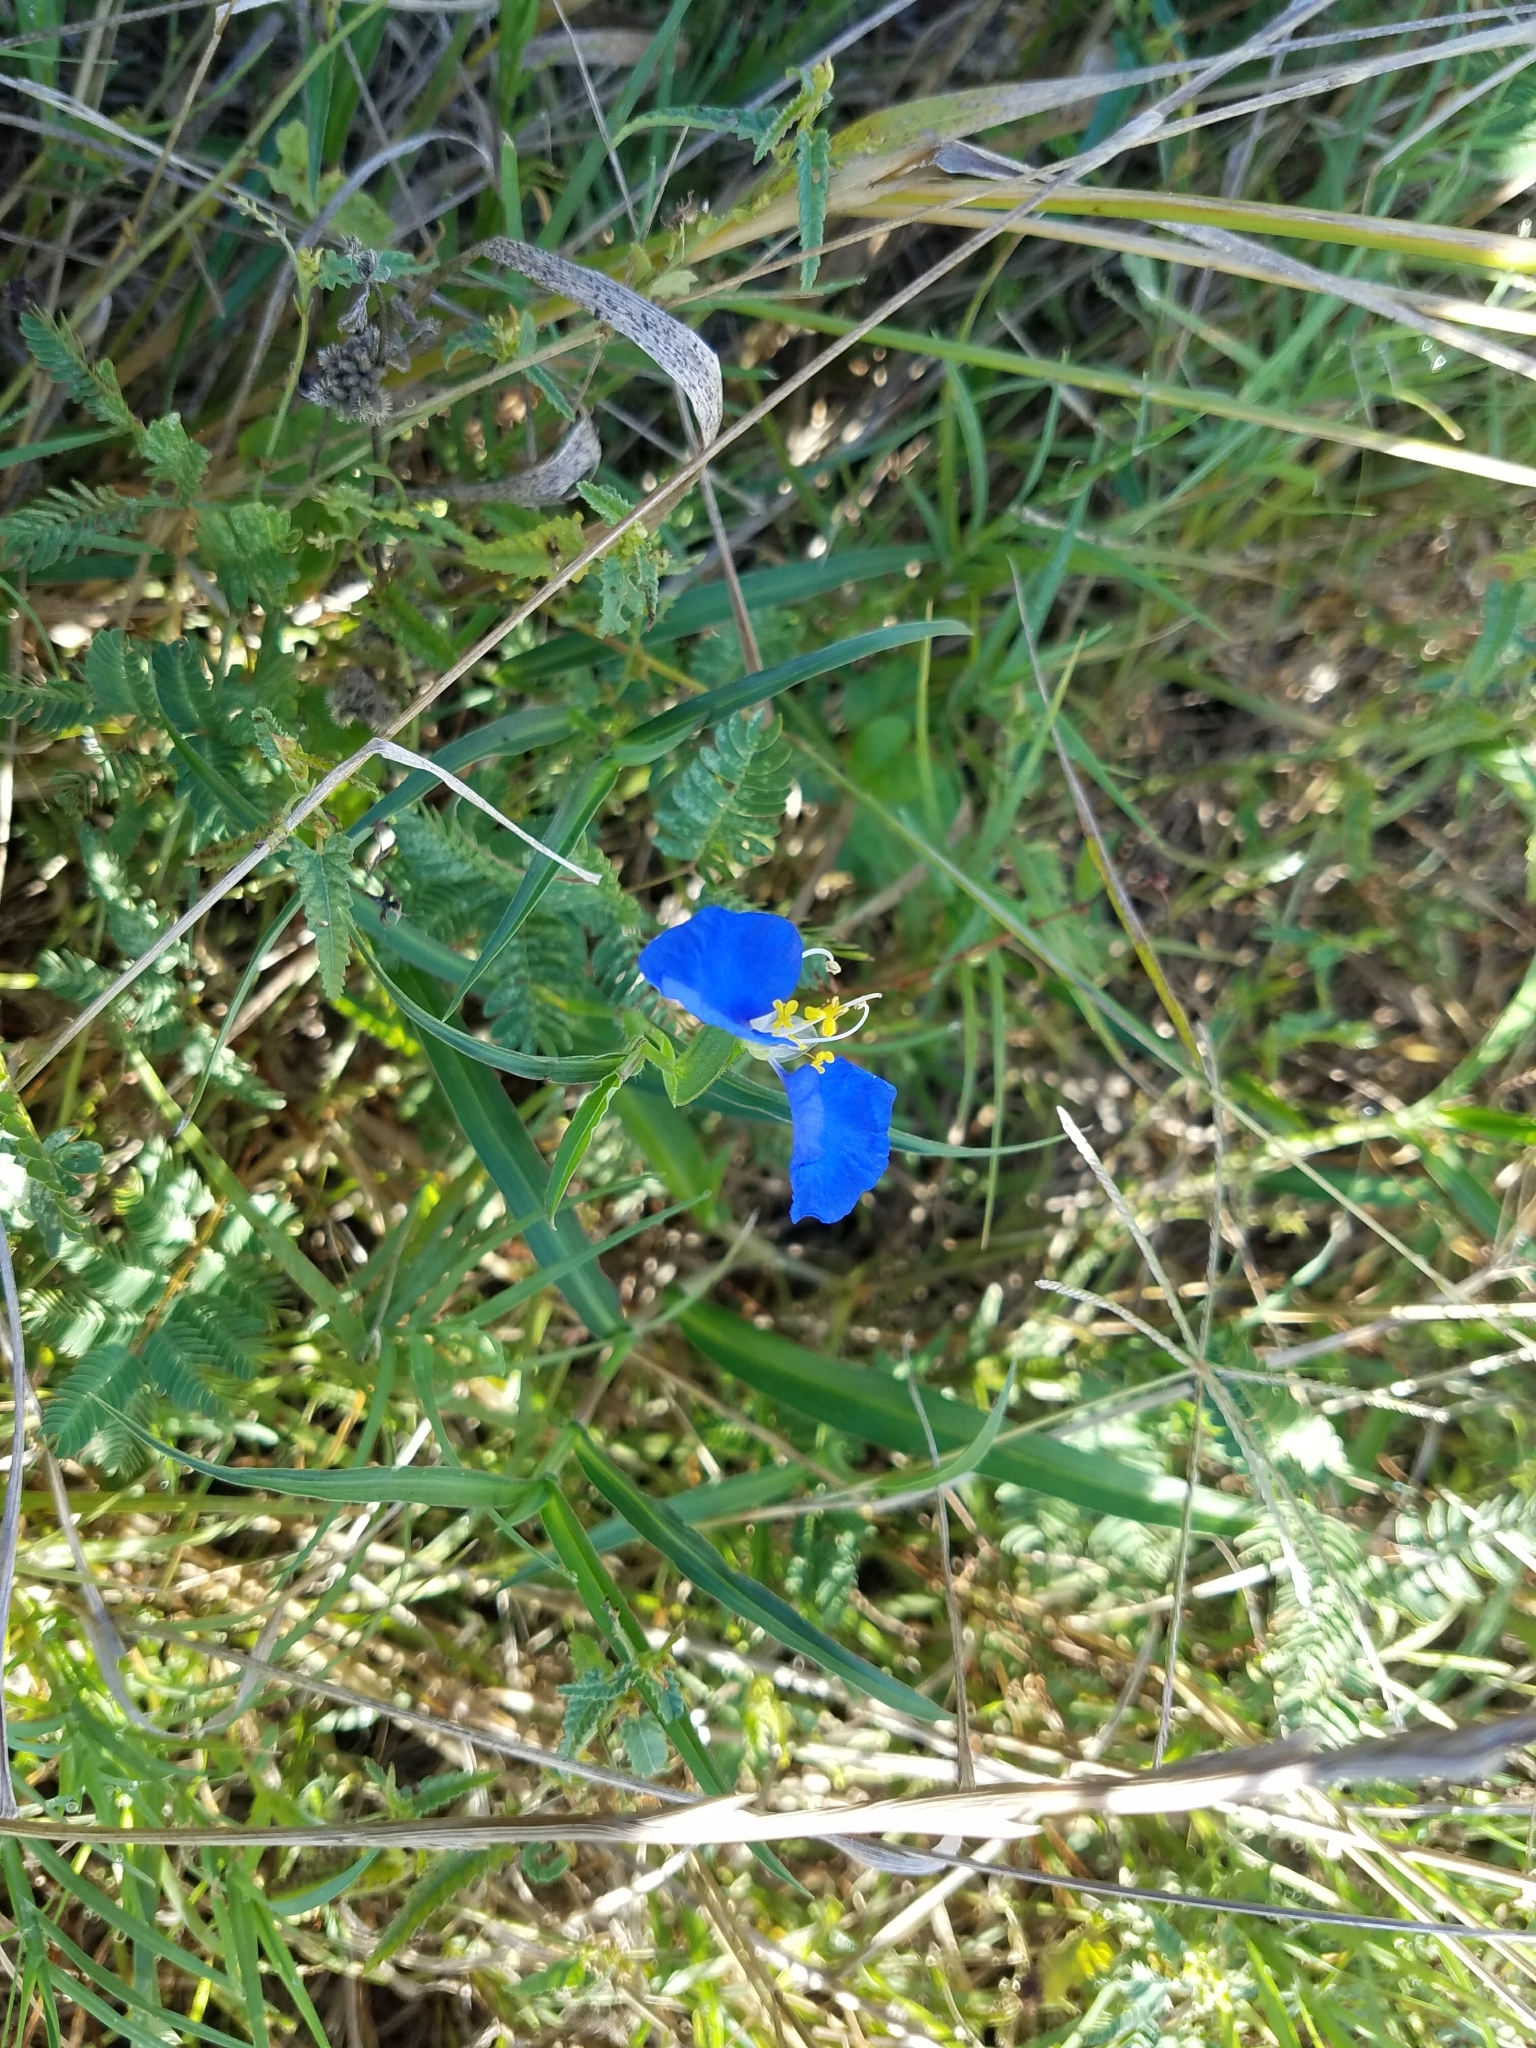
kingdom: Plantae
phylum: Tracheophyta
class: Liliopsida
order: Commelinales
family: Commelinaceae
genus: Commelina
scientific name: Commelina erecta
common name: Blousel blommetjie
